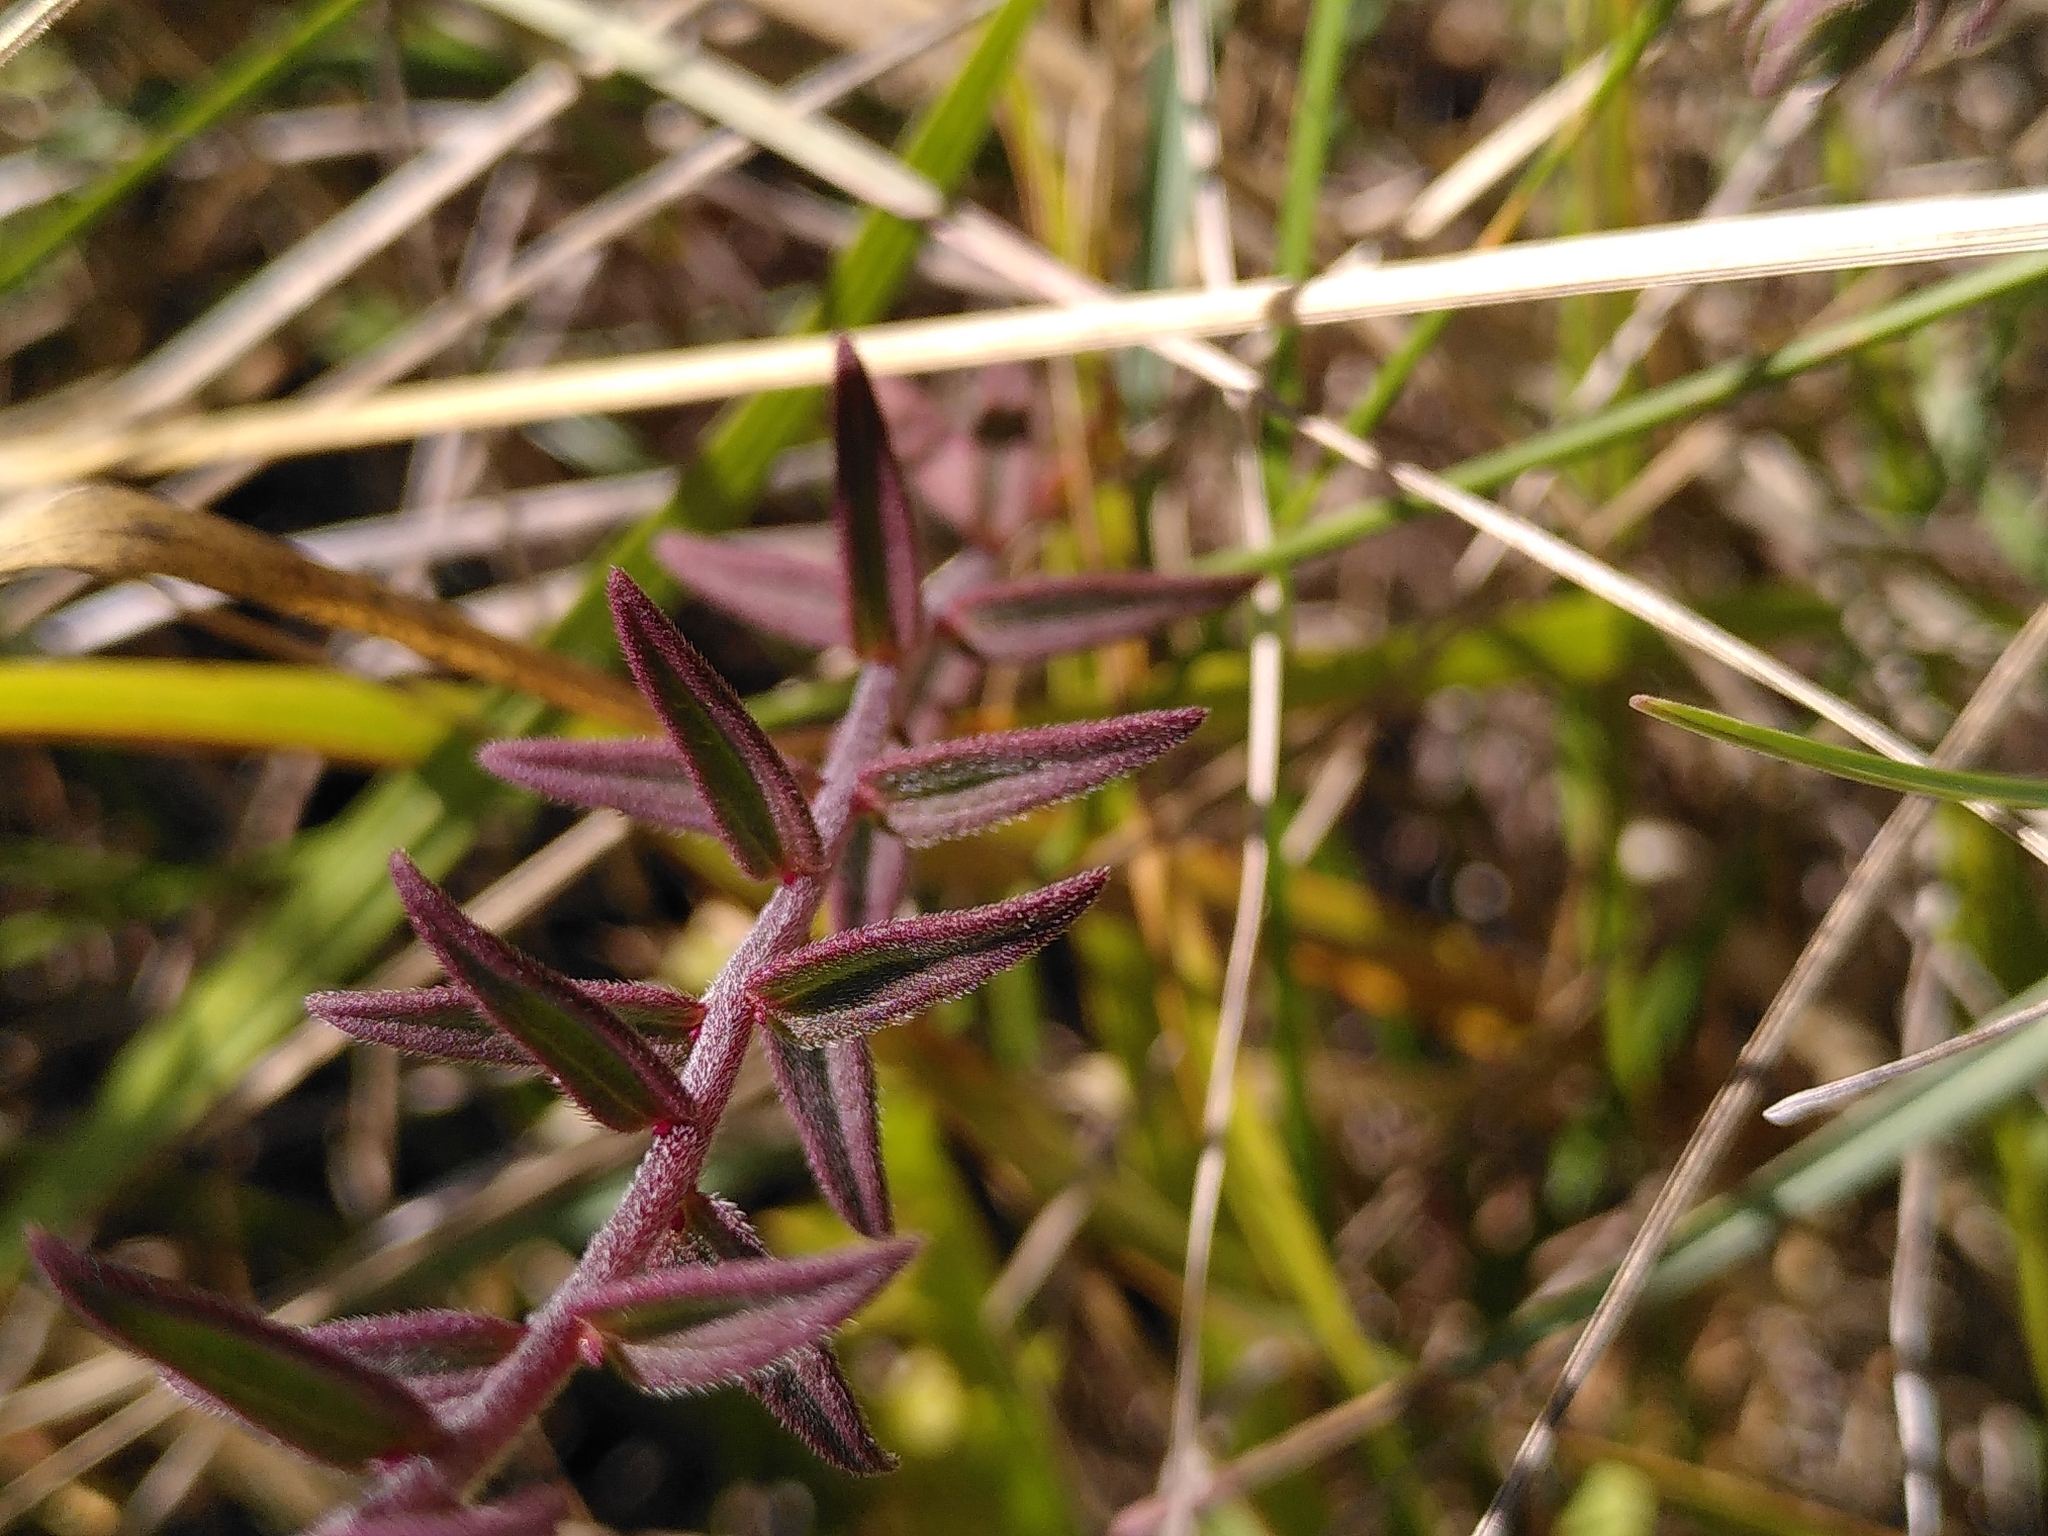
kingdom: Plantae
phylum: Tracheophyta
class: Magnoliopsida
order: Lamiales
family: Orobanchaceae
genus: Odontites
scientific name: Odontites vernus
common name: Red bartsia
